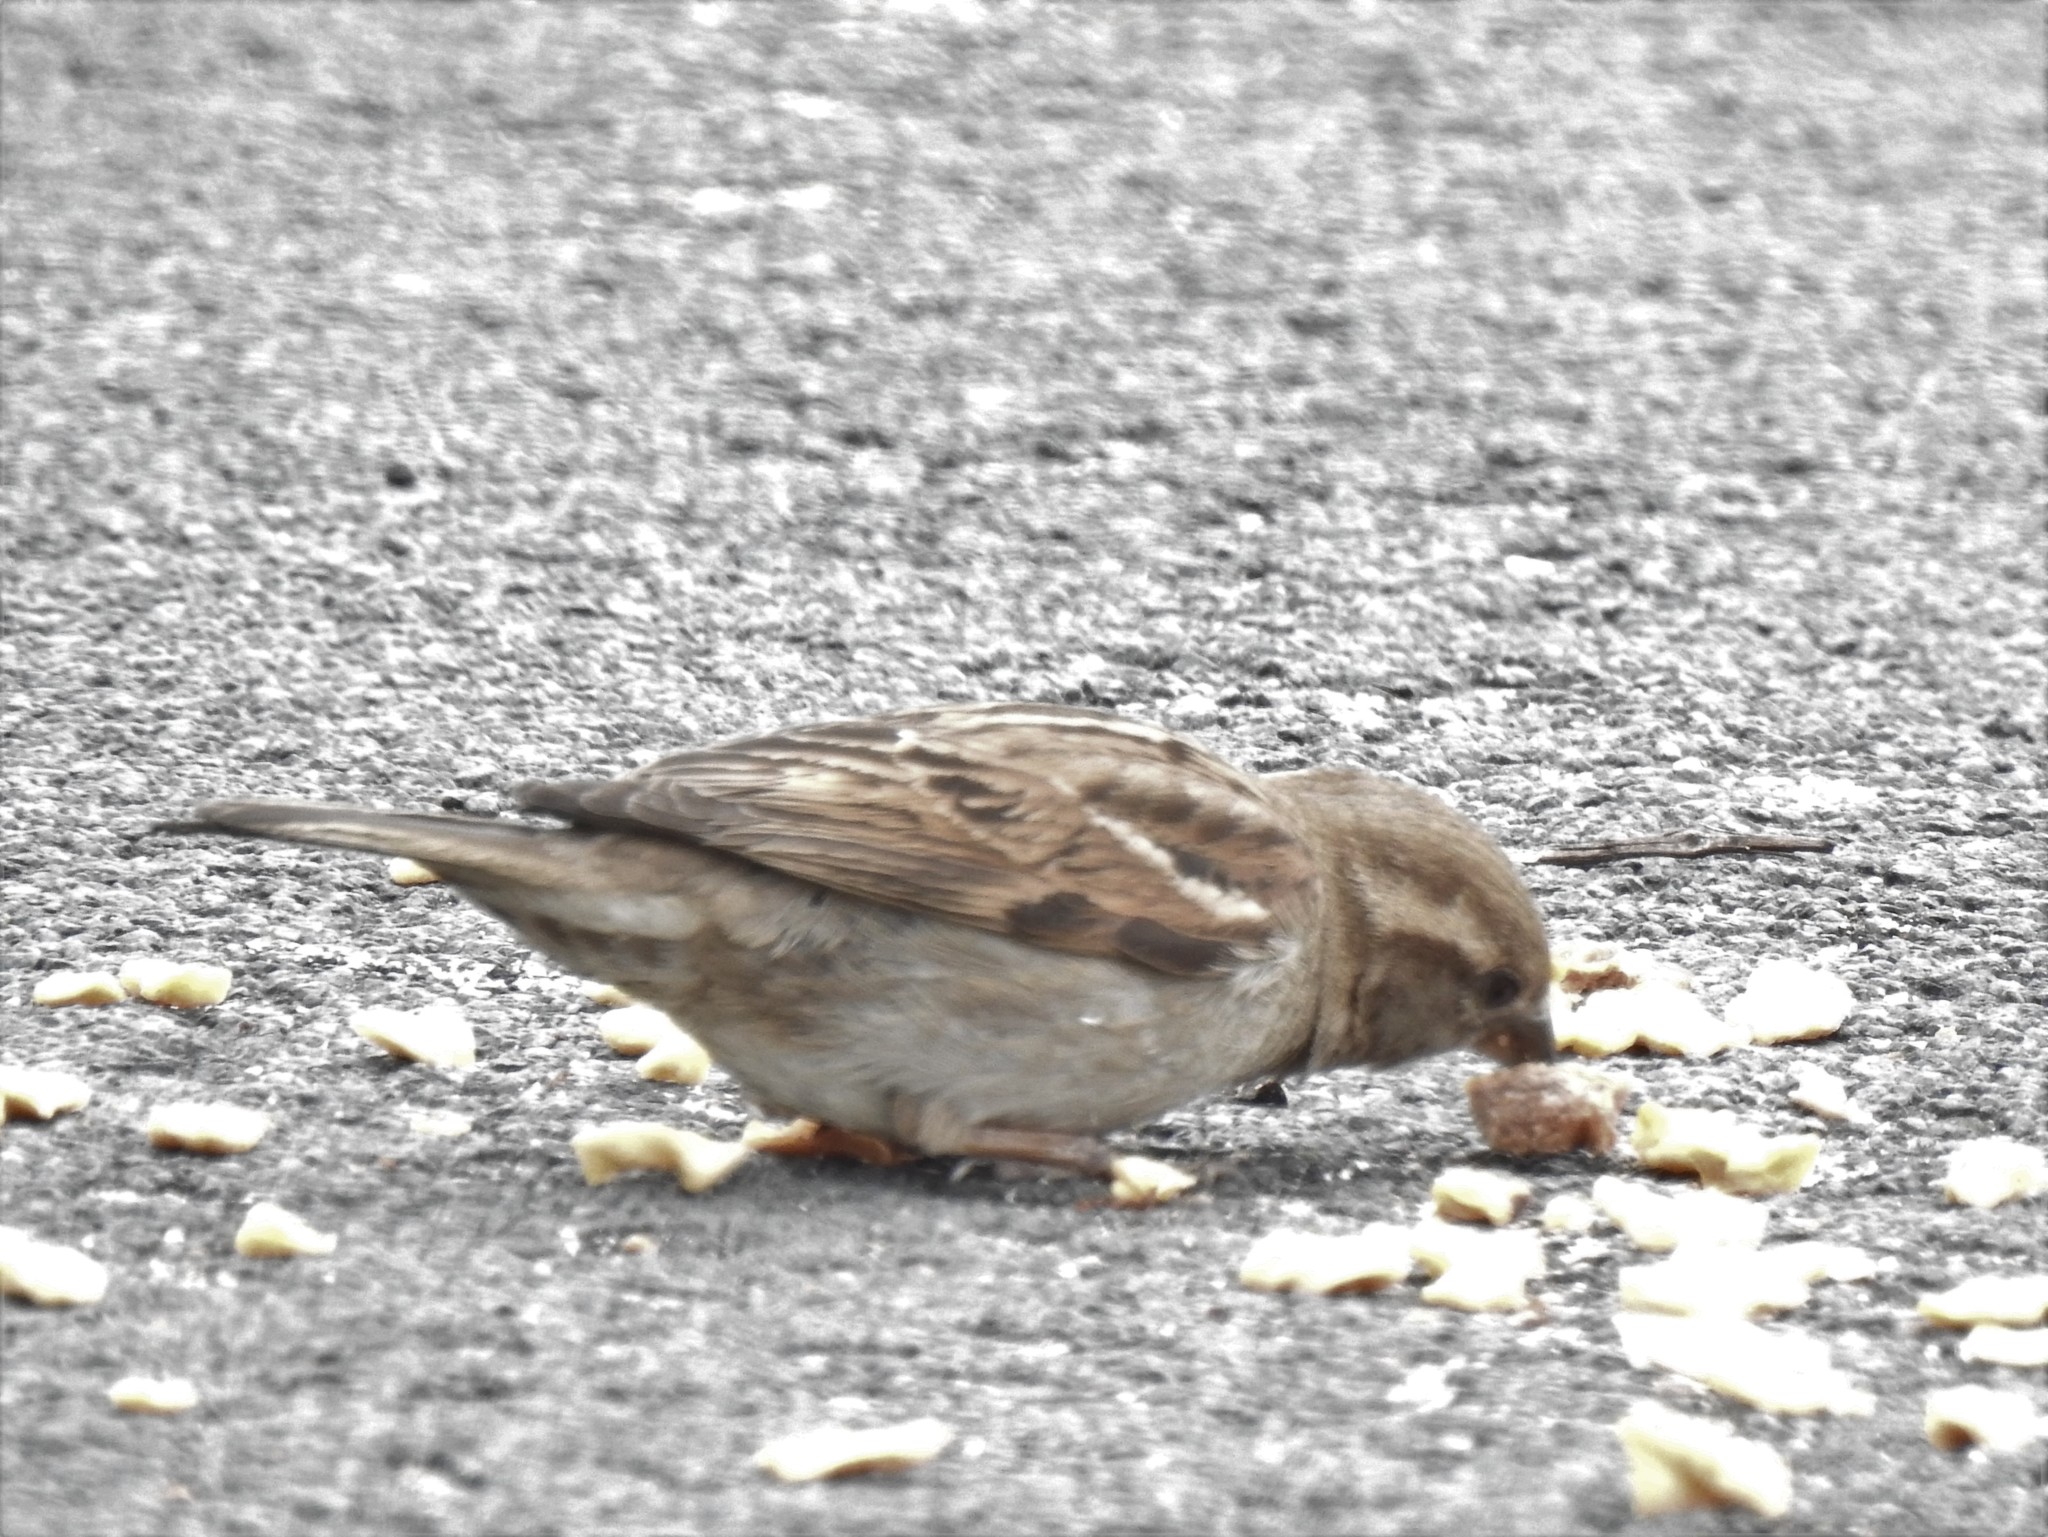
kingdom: Animalia
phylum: Chordata
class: Aves
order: Passeriformes
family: Passeridae
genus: Passer
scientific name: Passer domesticus
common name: House sparrow
